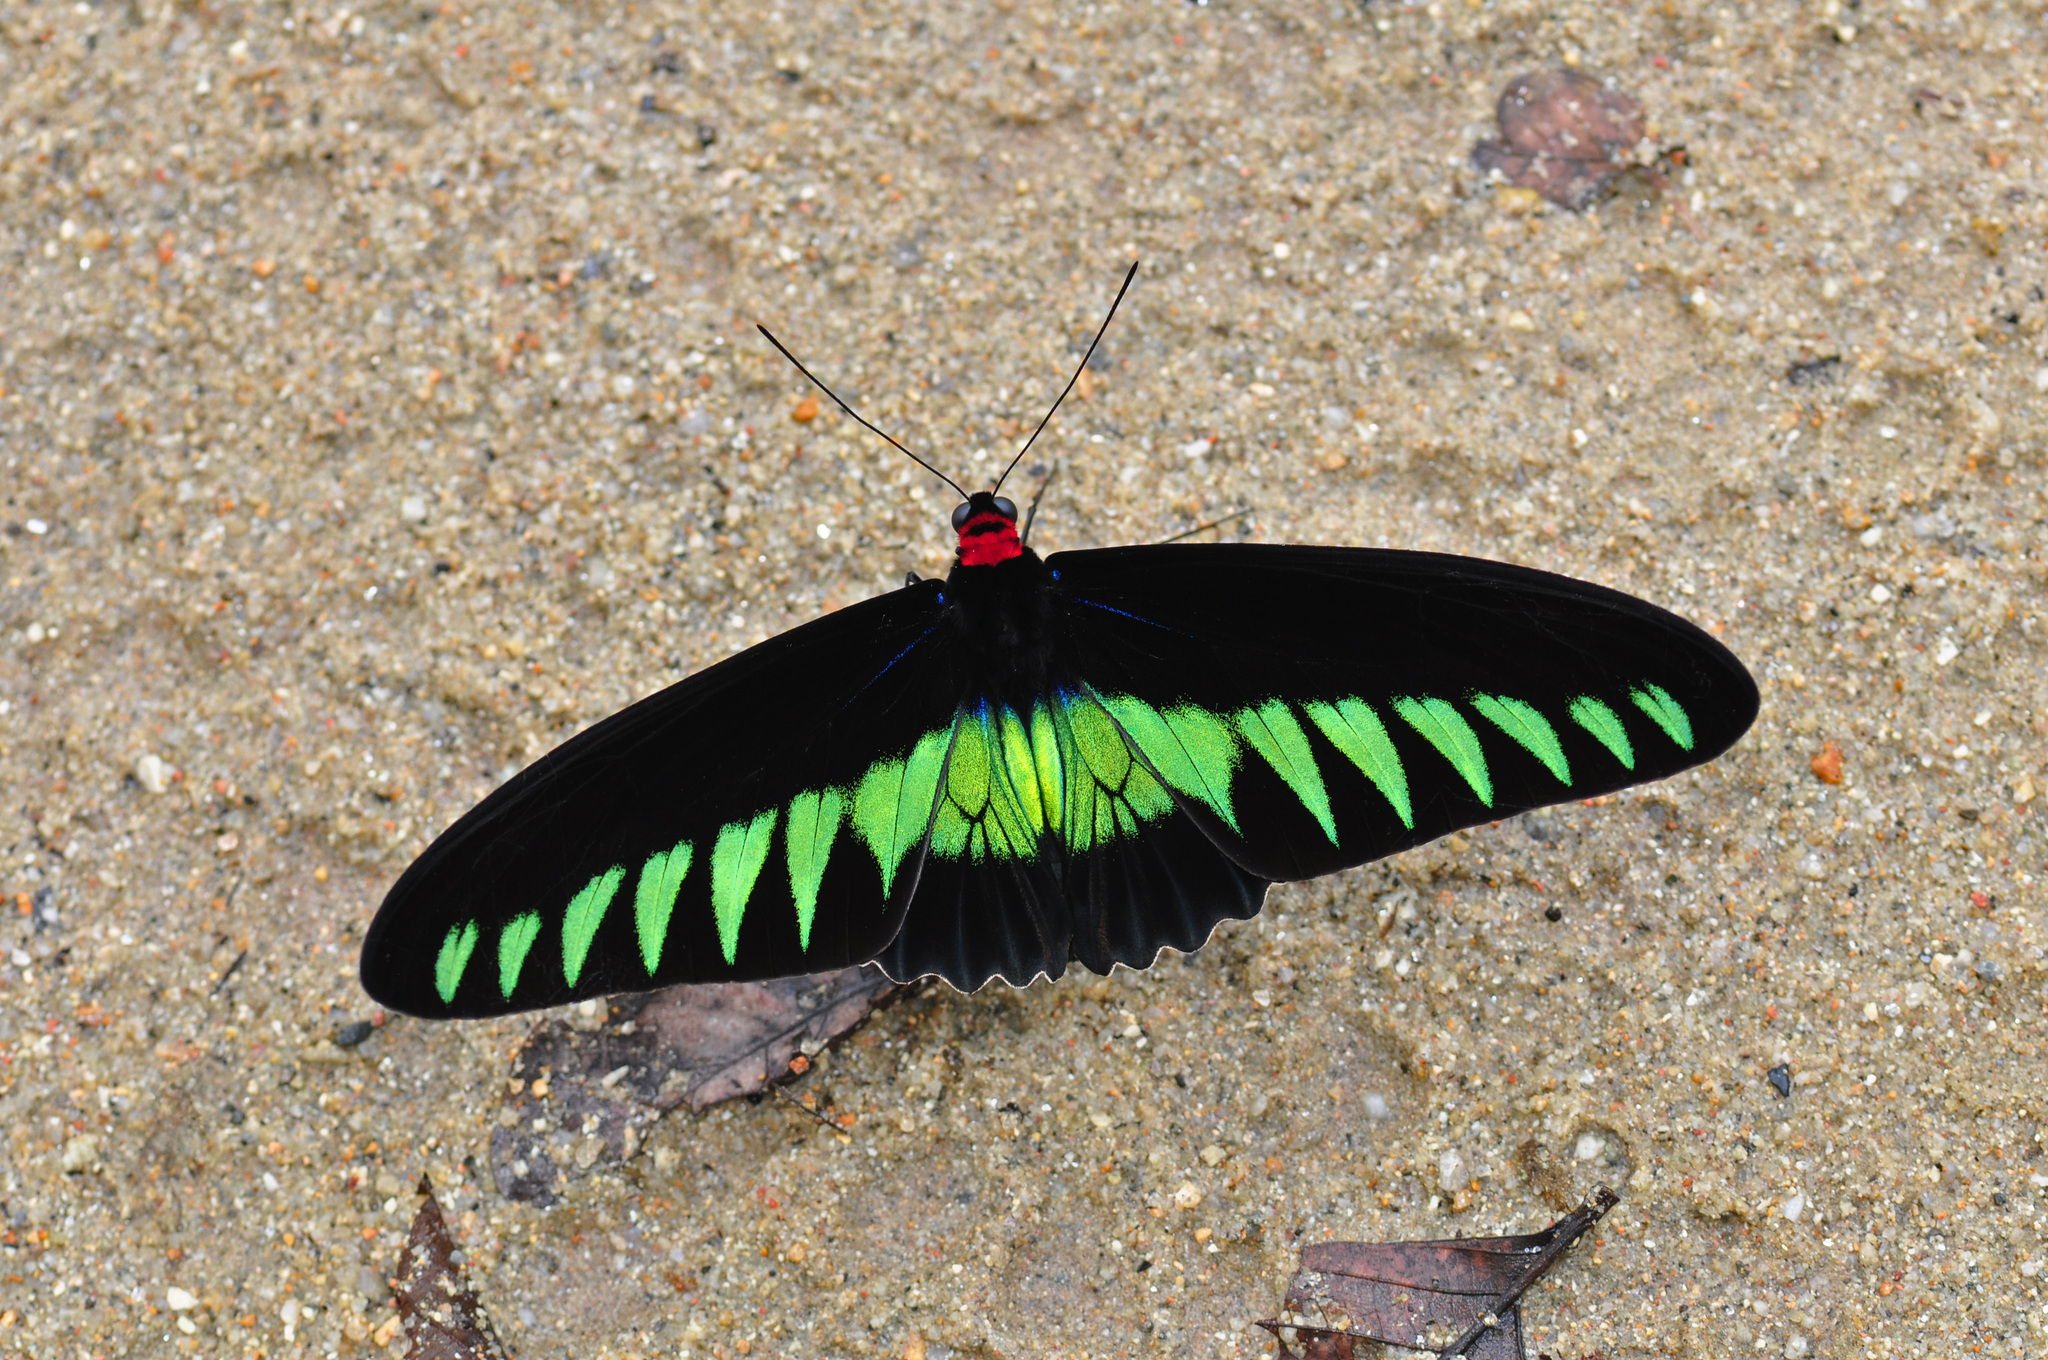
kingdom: Animalia
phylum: Arthropoda
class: Insecta
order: Lepidoptera
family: Papilionidae
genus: Trogonoptera
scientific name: Trogonoptera brookiana
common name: Raja brooke's birdwing
